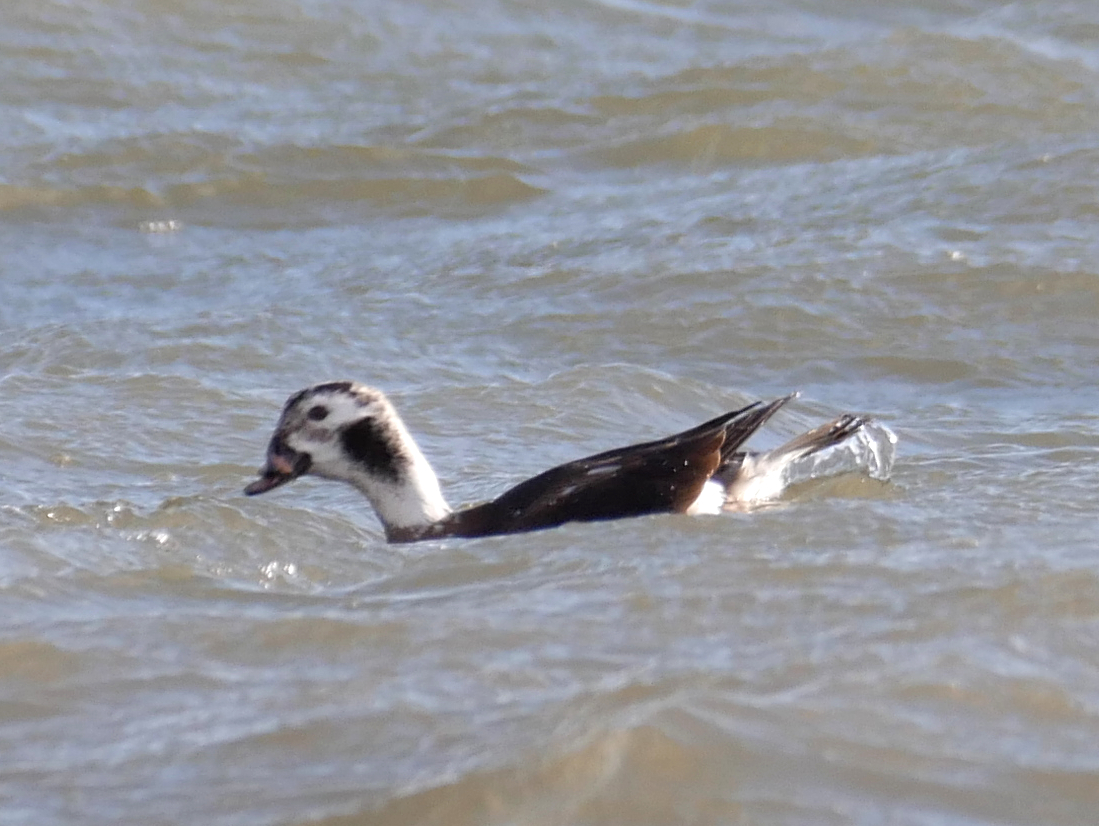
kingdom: Animalia
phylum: Chordata
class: Aves
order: Anseriformes
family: Anatidae
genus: Clangula
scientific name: Clangula hyemalis
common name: Long-tailed duck
